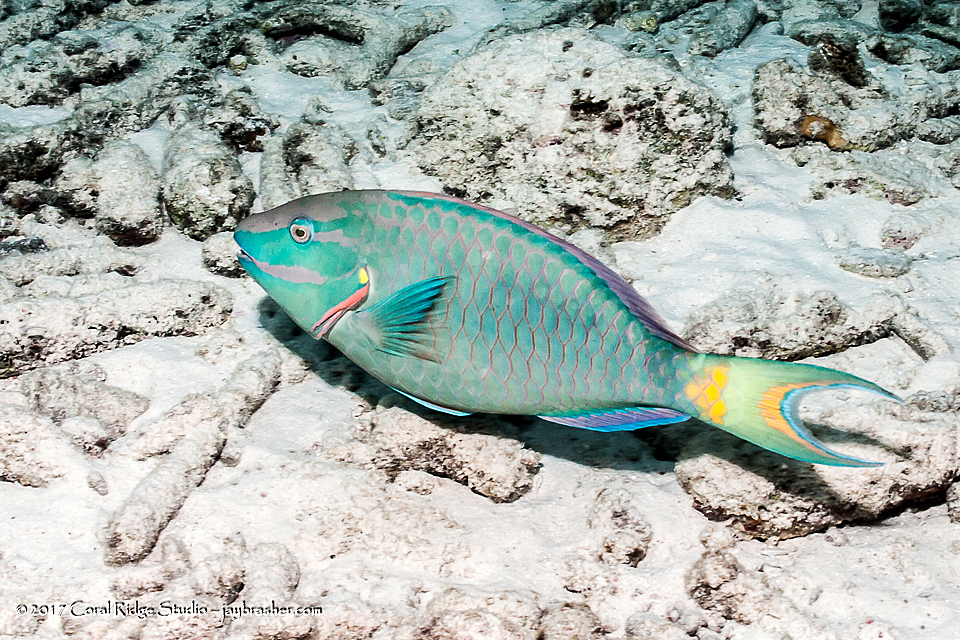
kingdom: Animalia
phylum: Chordata
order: Perciformes
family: Scaridae
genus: Sparisoma
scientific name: Sparisoma viride
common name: Stoplight parrotfish
